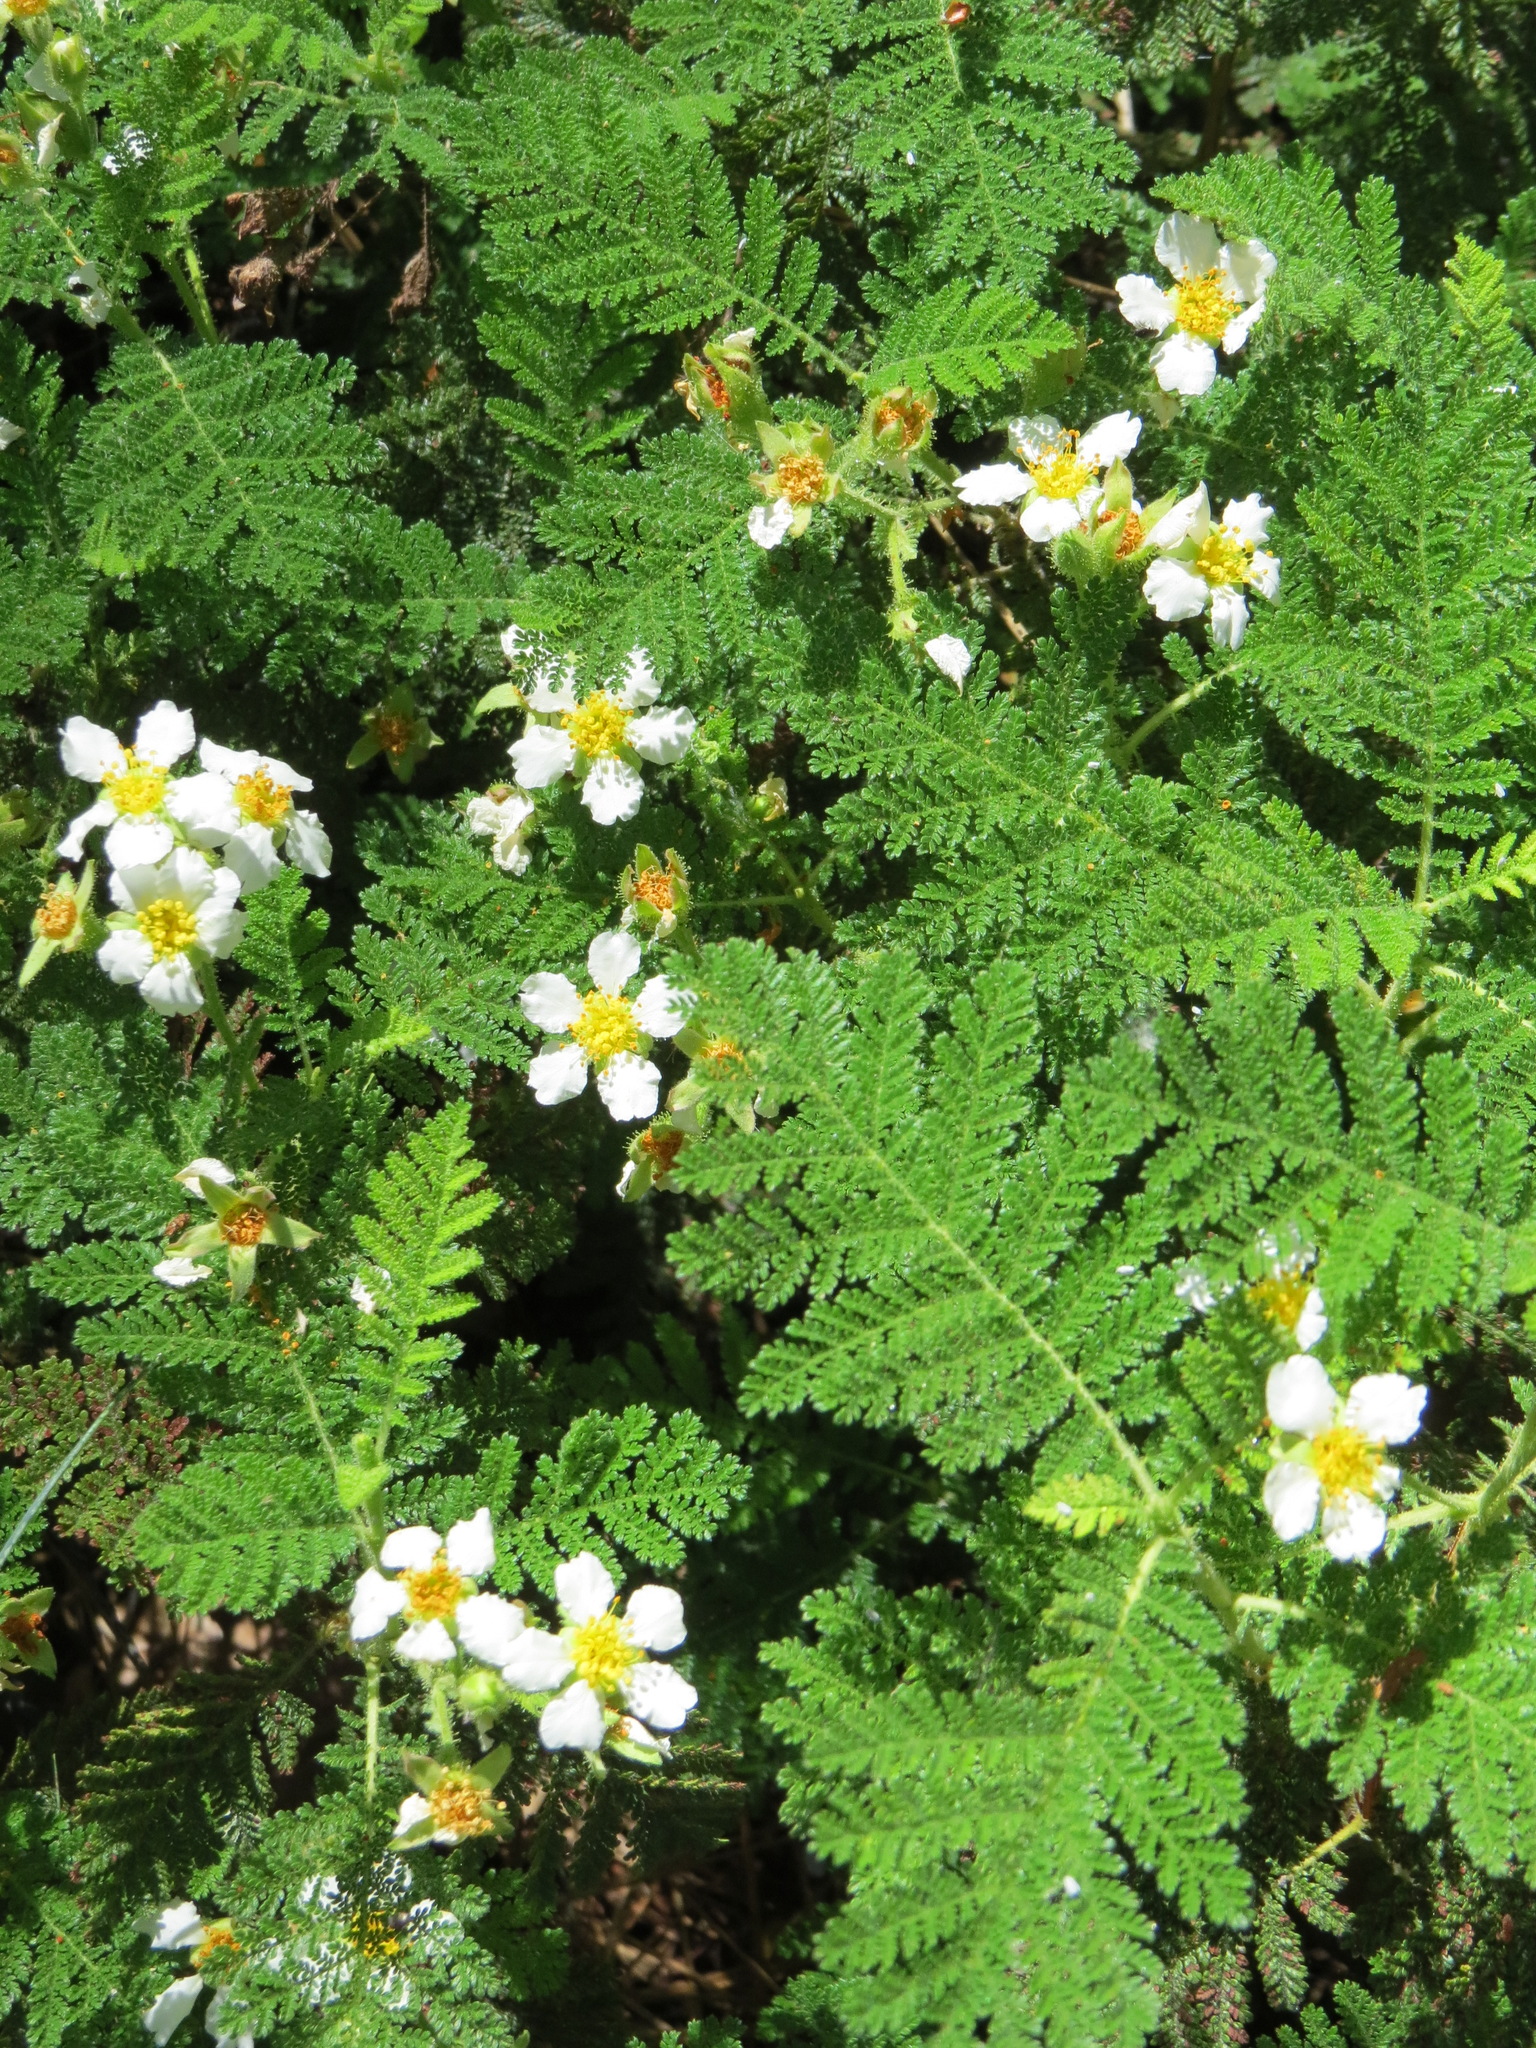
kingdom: Plantae
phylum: Tracheophyta
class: Magnoliopsida
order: Rosales
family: Rosaceae
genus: Chamaebatia
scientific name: Chamaebatia foliolosa
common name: Mountain misery
